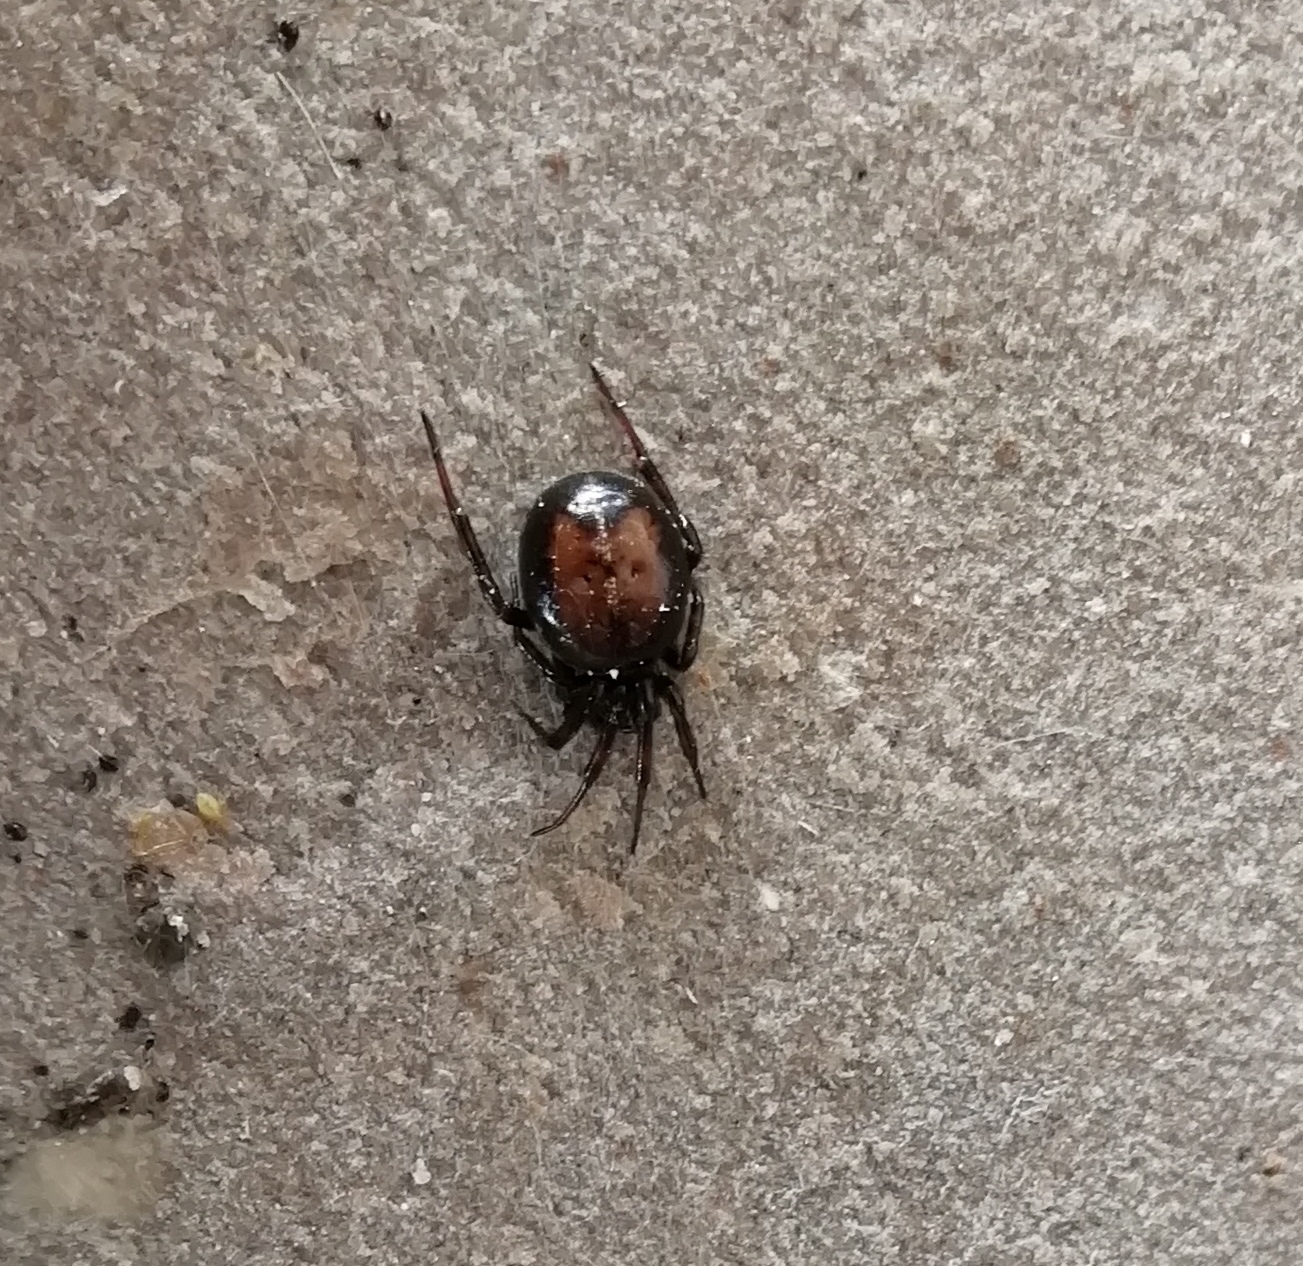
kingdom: Animalia
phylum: Arthropoda
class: Arachnida
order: Araneae
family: Theridiidae
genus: Steatoda
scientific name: Steatoda bipunctata
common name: False widow
